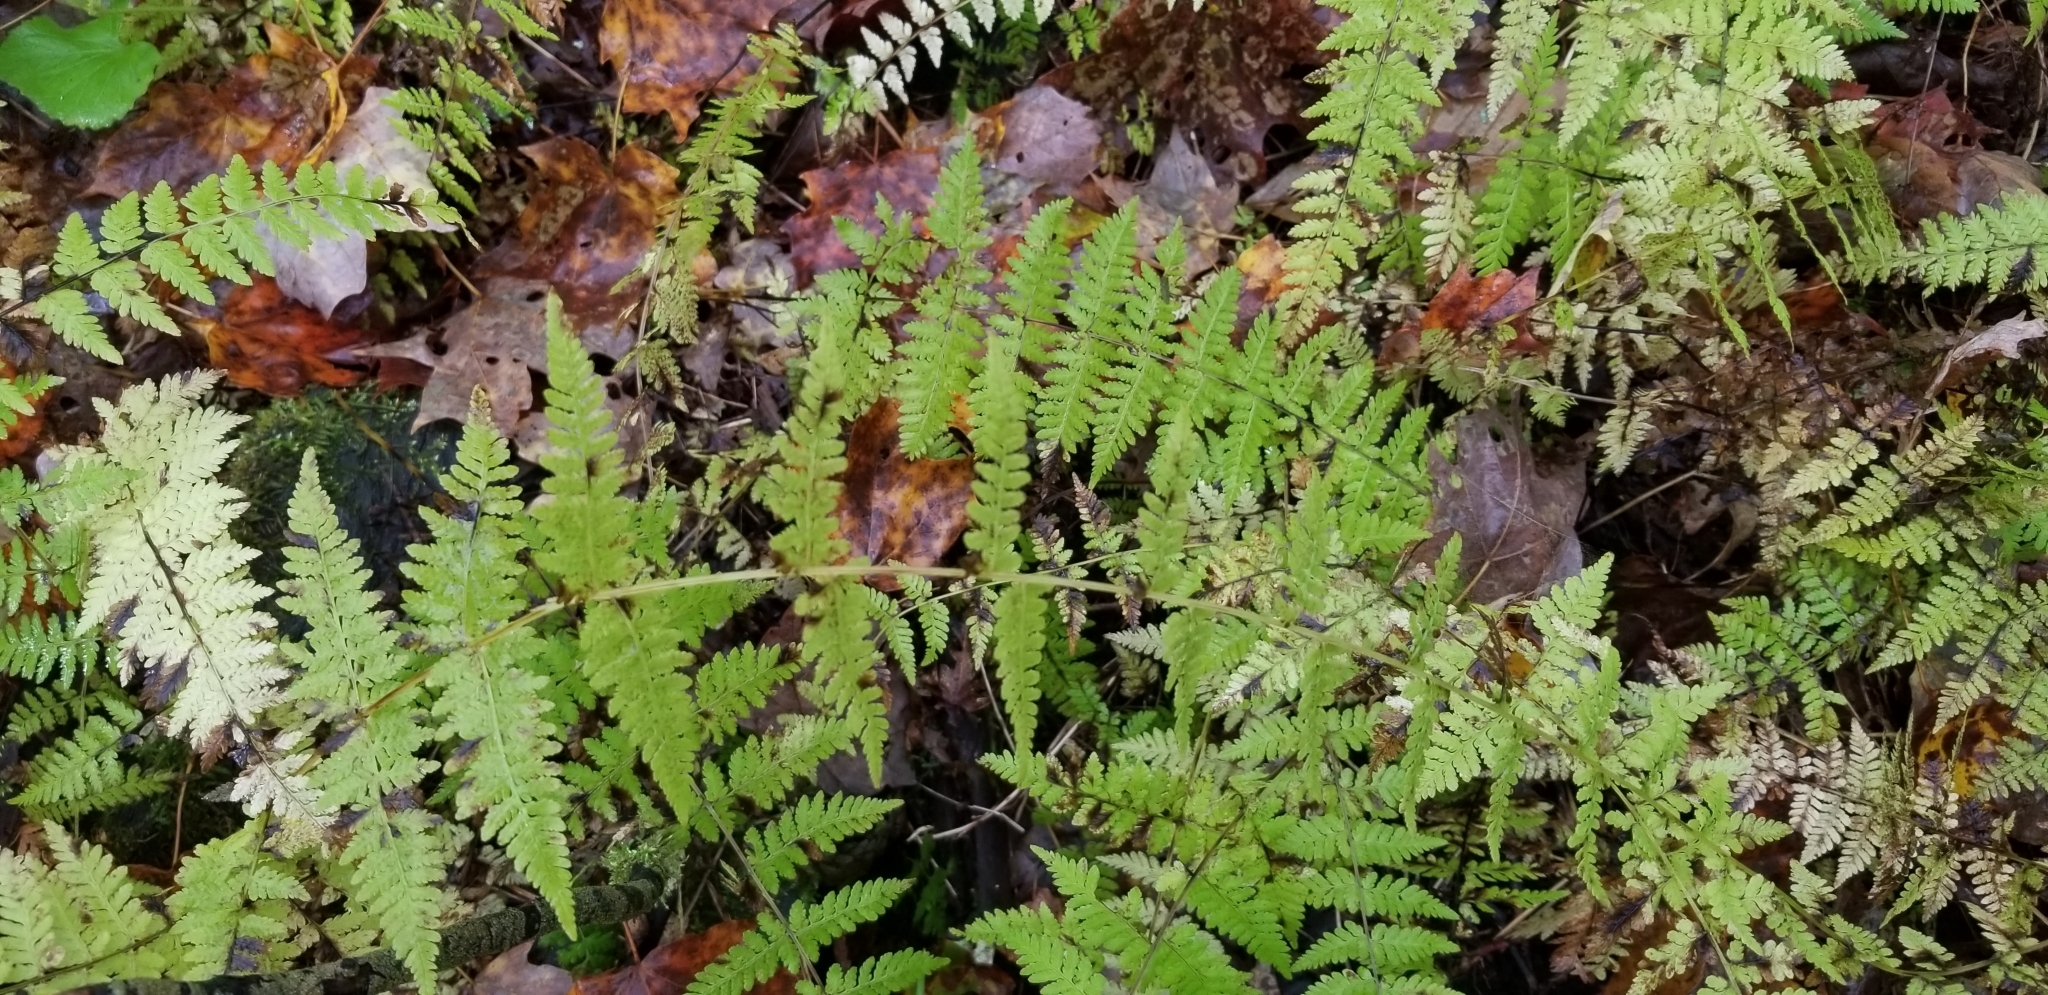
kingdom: Plantae
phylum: Tracheophyta
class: Polypodiopsida
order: Polypodiales
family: Cystopteridaceae
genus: Cystopteris
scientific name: Cystopteris bulbifera
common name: Bulblet bladder fern
